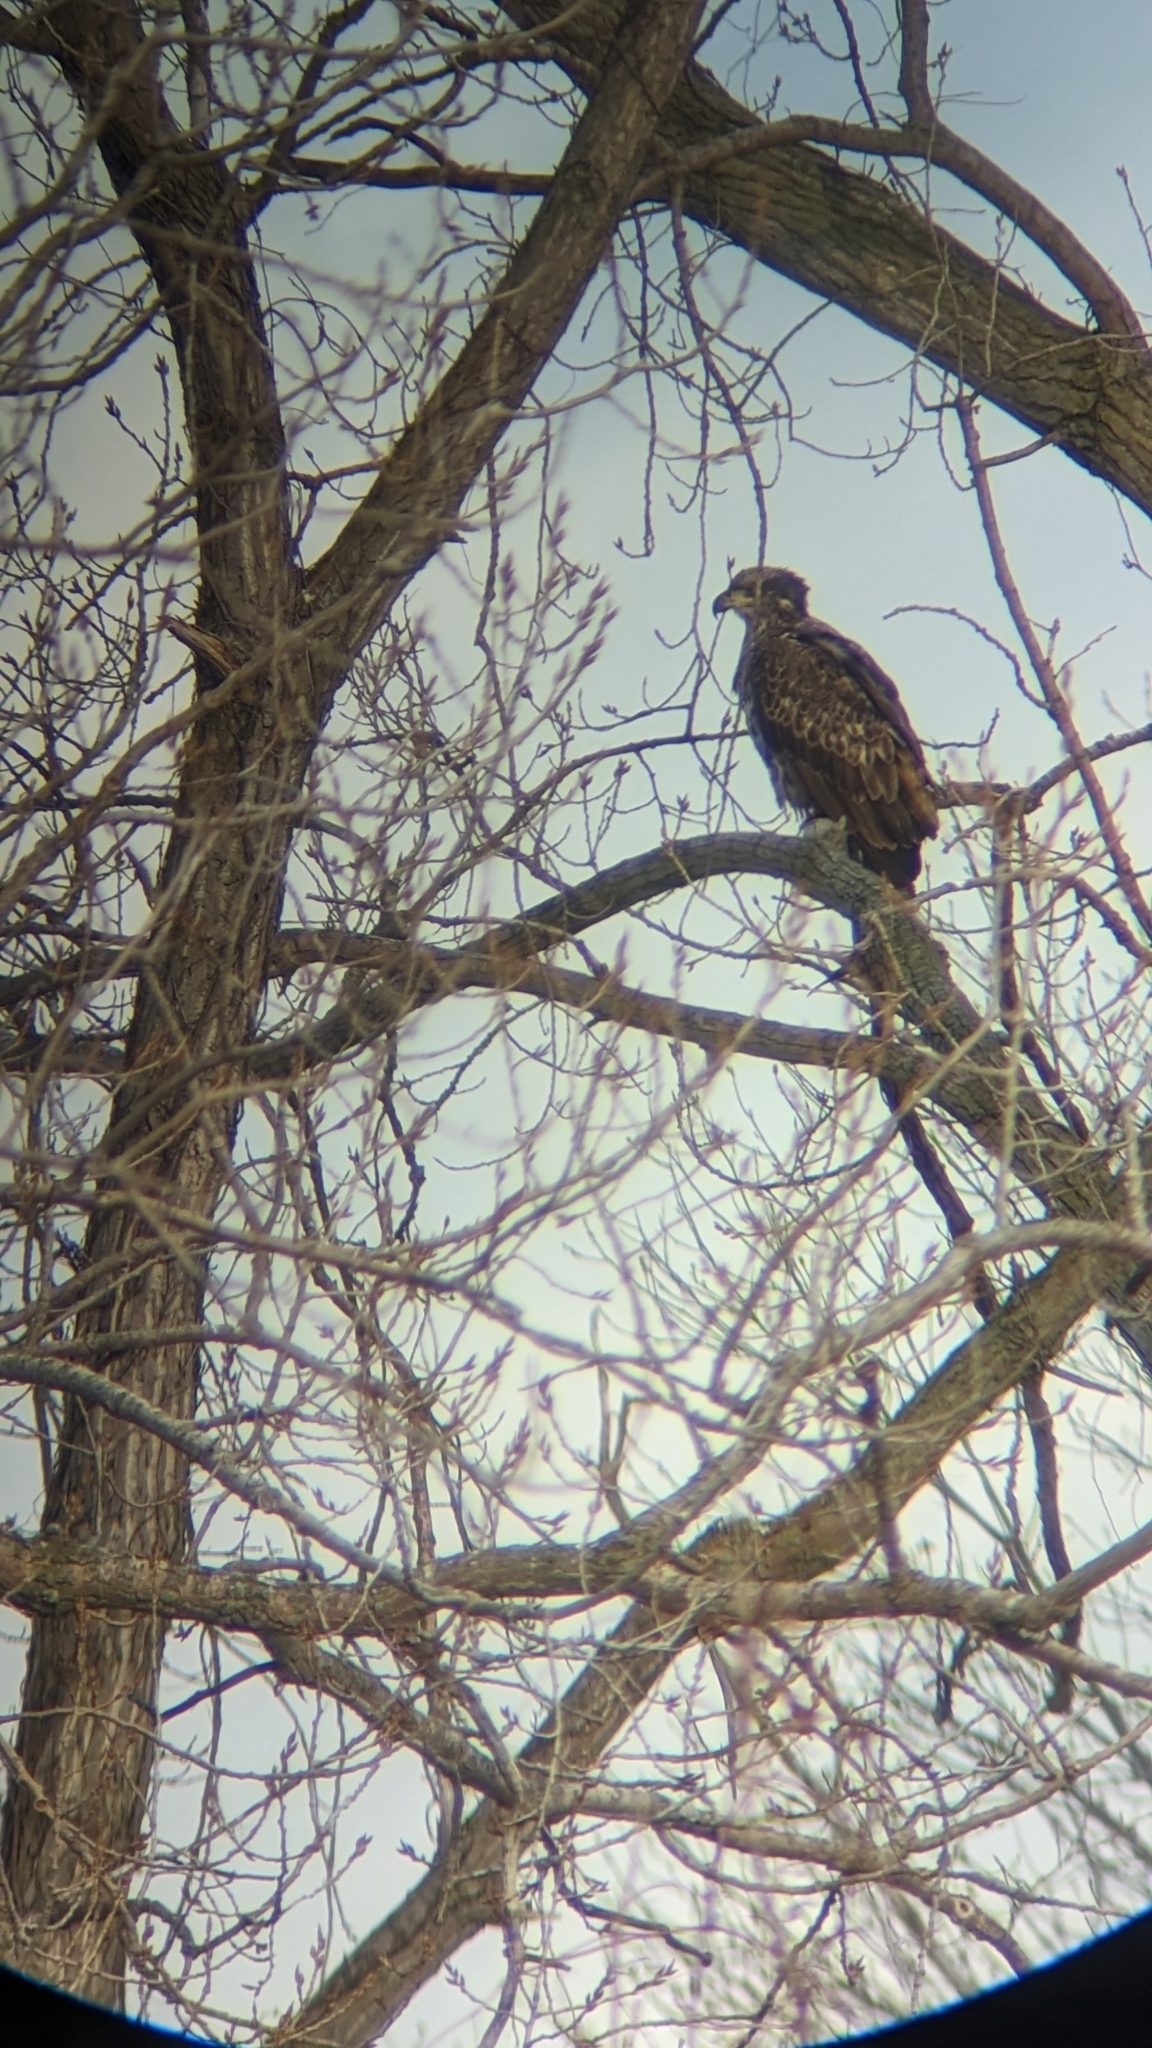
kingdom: Animalia
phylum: Chordata
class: Aves
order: Accipitriformes
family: Accipitridae
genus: Haliaeetus
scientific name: Haliaeetus leucocephalus
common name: Bald eagle
